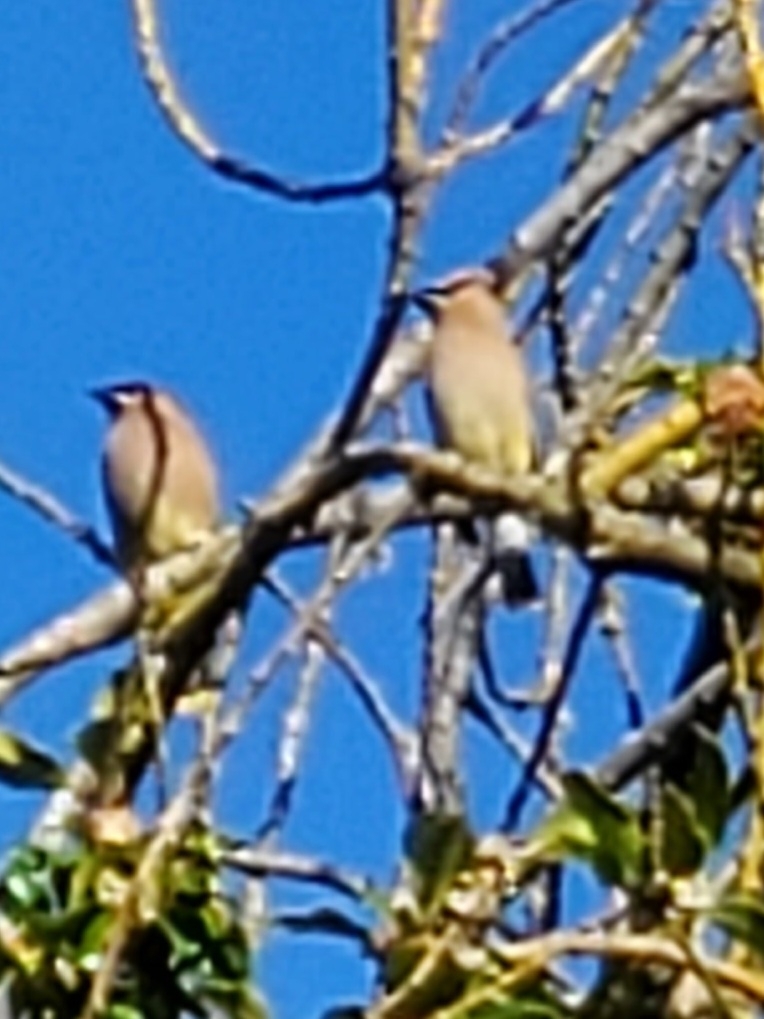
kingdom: Animalia
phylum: Chordata
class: Aves
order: Passeriformes
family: Bombycillidae
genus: Bombycilla
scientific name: Bombycilla cedrorum
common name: Cedar waxwing
